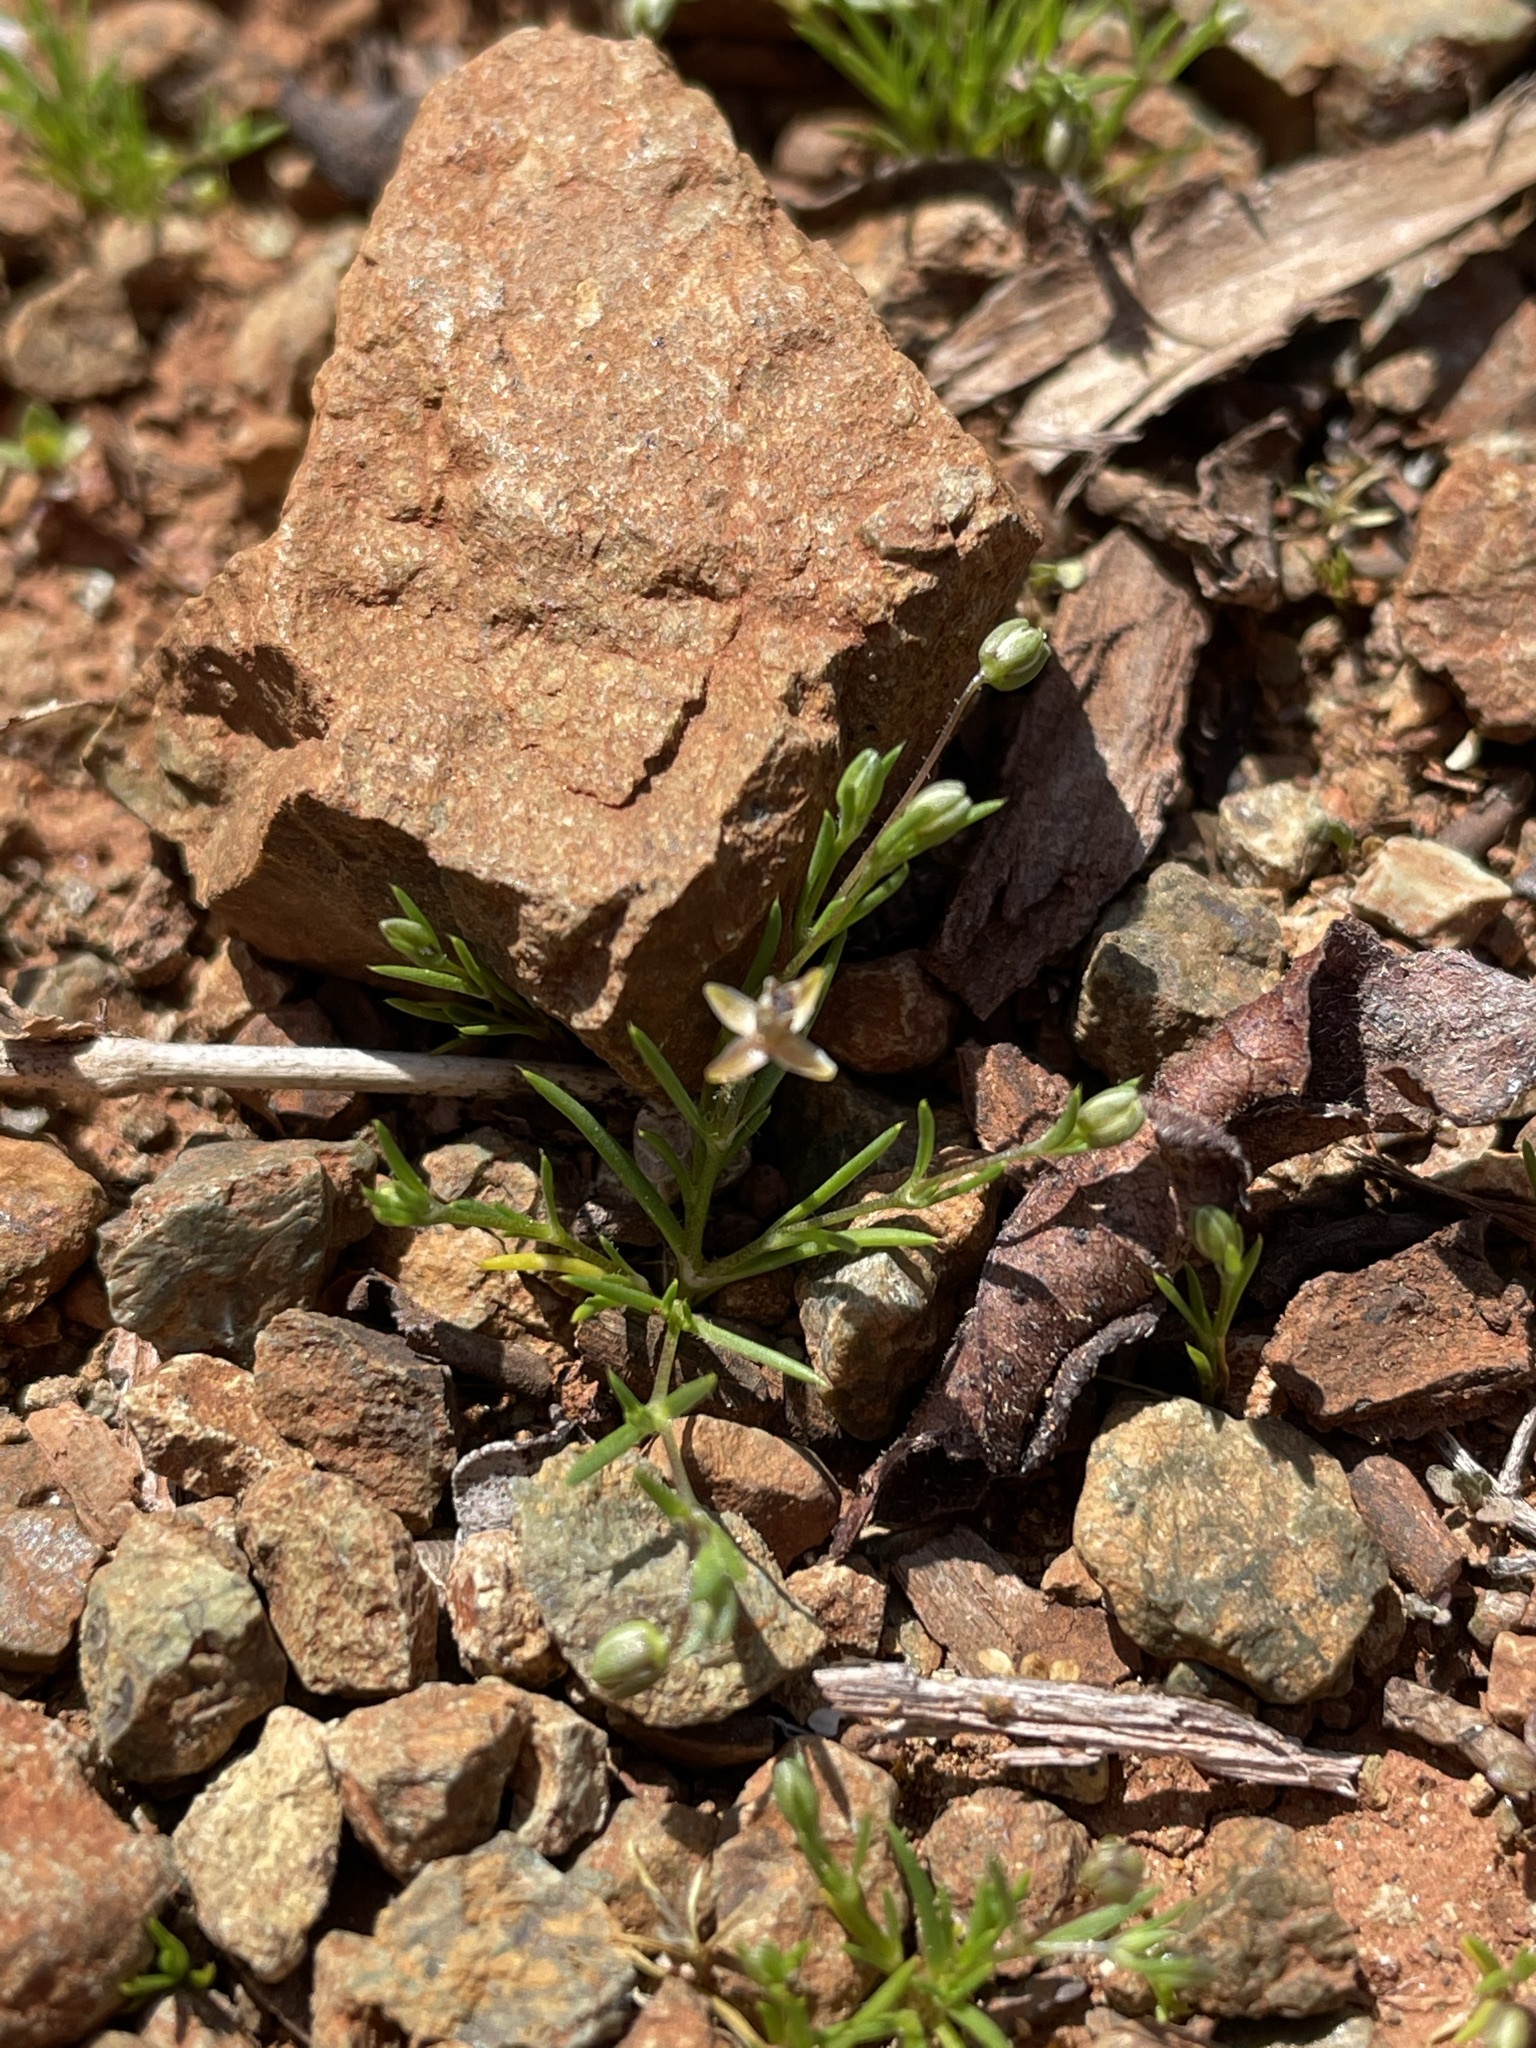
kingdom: Plantae
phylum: Tracheophyta
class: Magnoliopsida
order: Caryophyllales
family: Caryophyllaceae
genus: Sagina
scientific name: Sagina apetala
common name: Annual pearlwort
